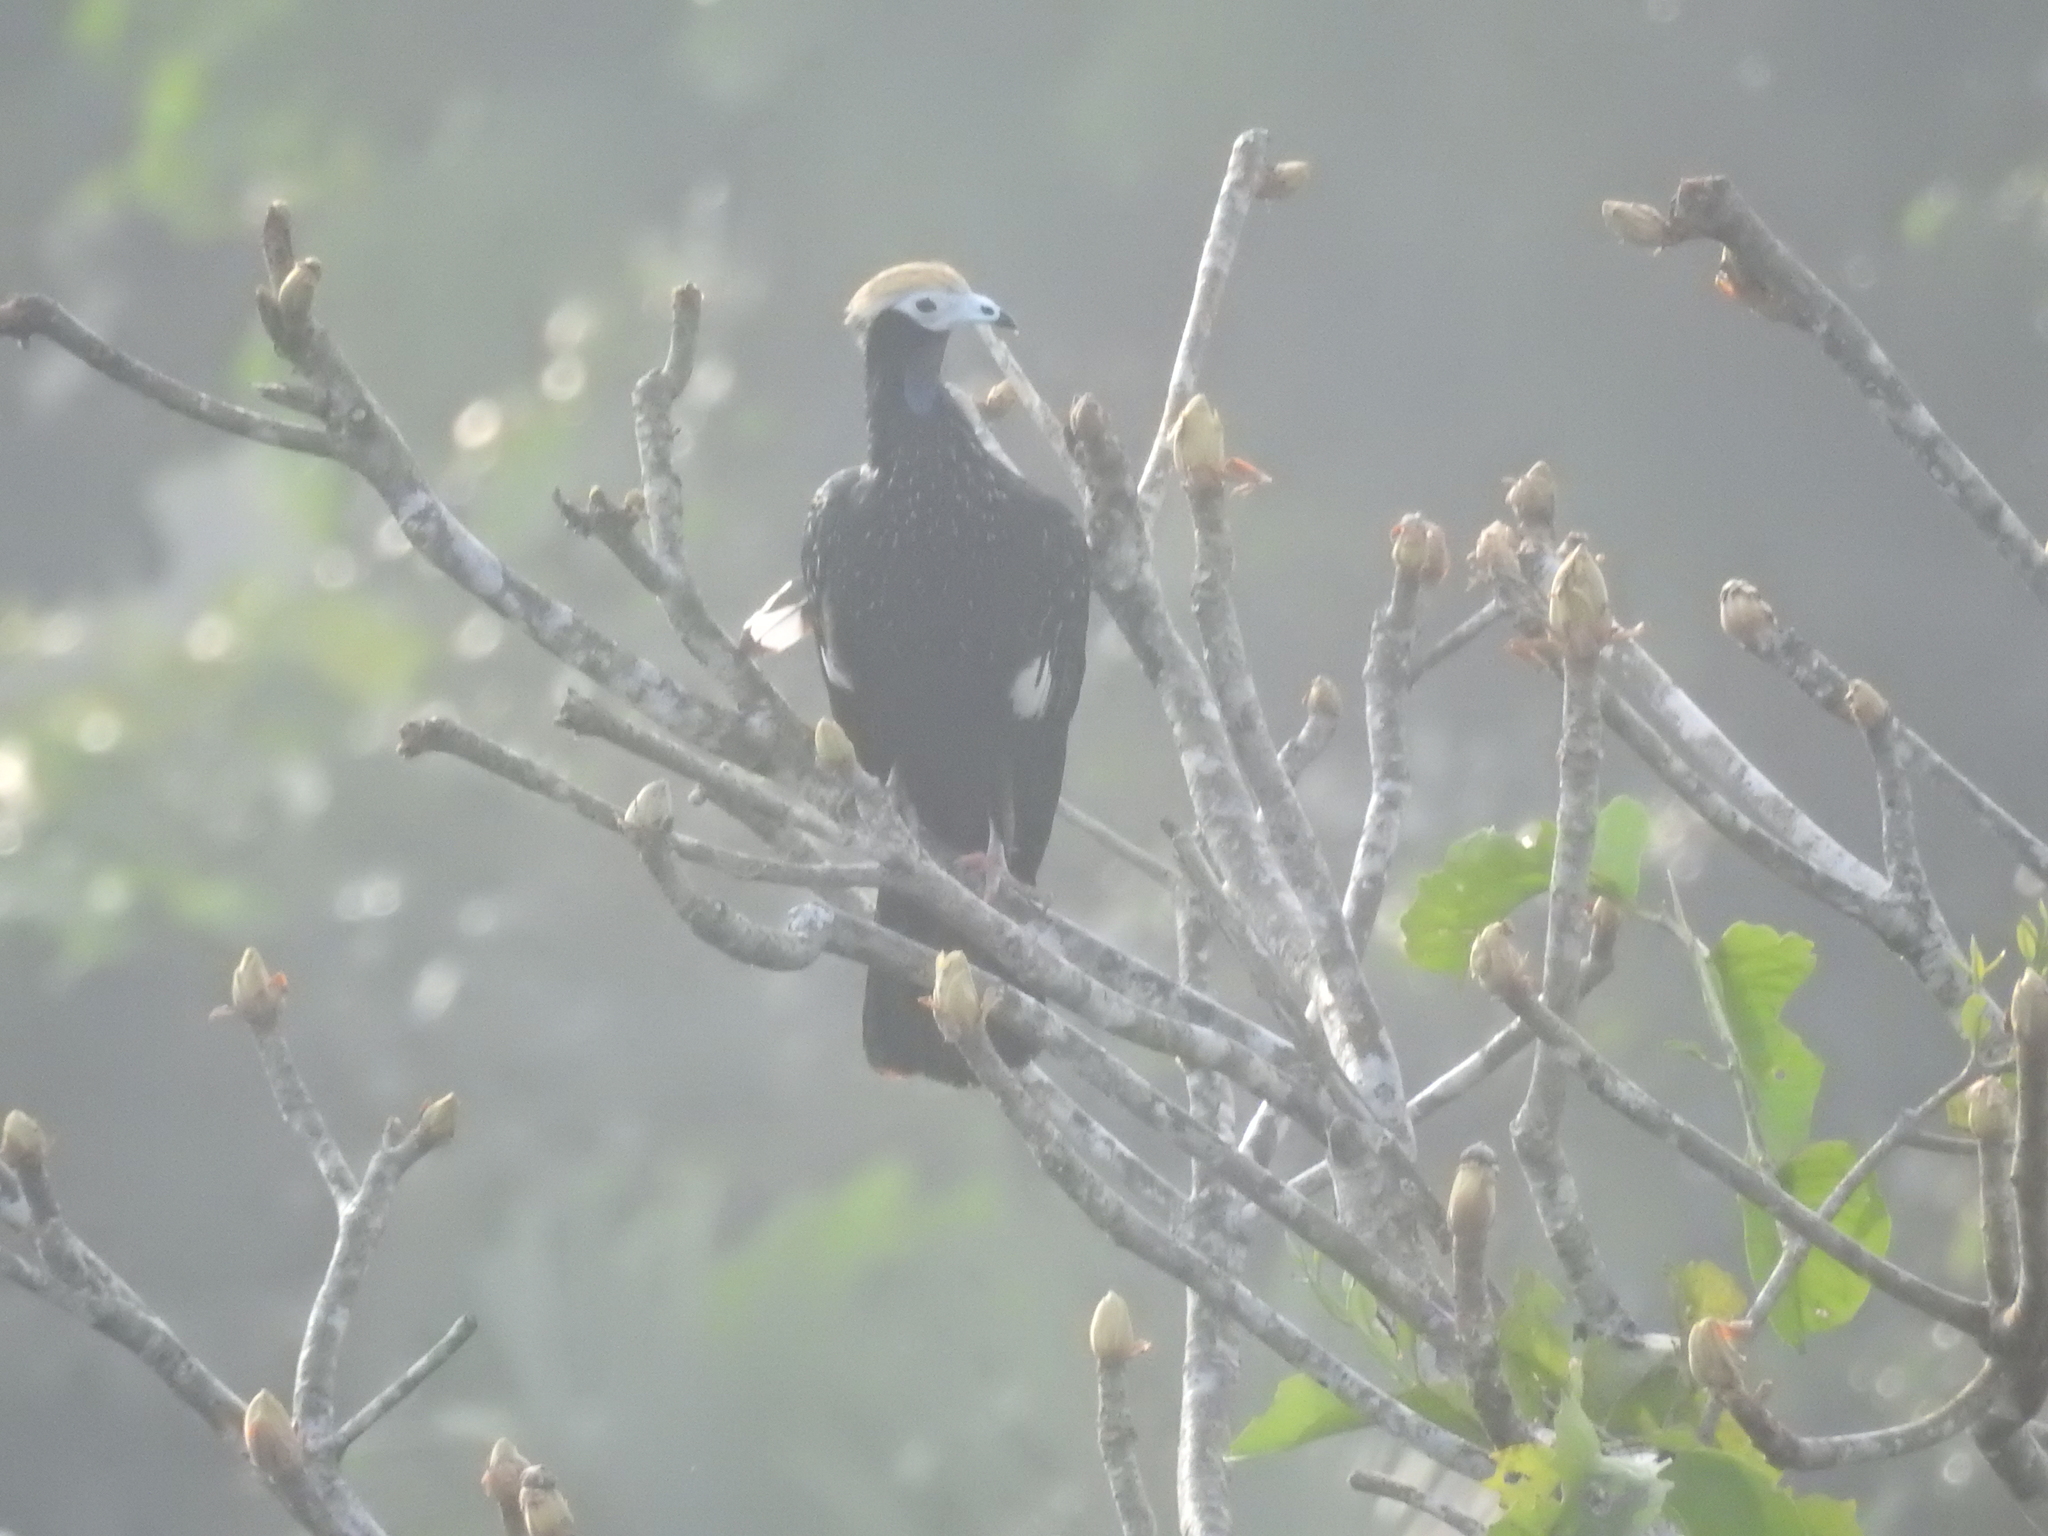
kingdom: Animalia
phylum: Chordata
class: Aves
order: Galliformes
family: Cracidae
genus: Pipile
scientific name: Pipile cumanensis
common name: Blue-throated piping-guan
